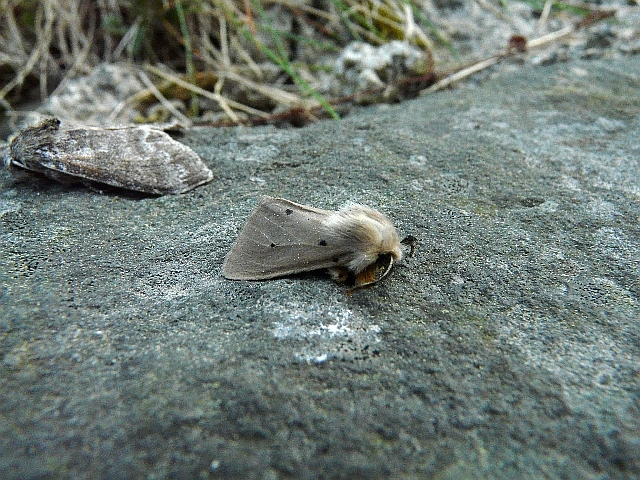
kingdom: Animalia
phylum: Arthropoda
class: Insecta
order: Lepidoptera
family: Erebidae
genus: Diaphora
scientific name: Diaphora mendica
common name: Muslin moth
